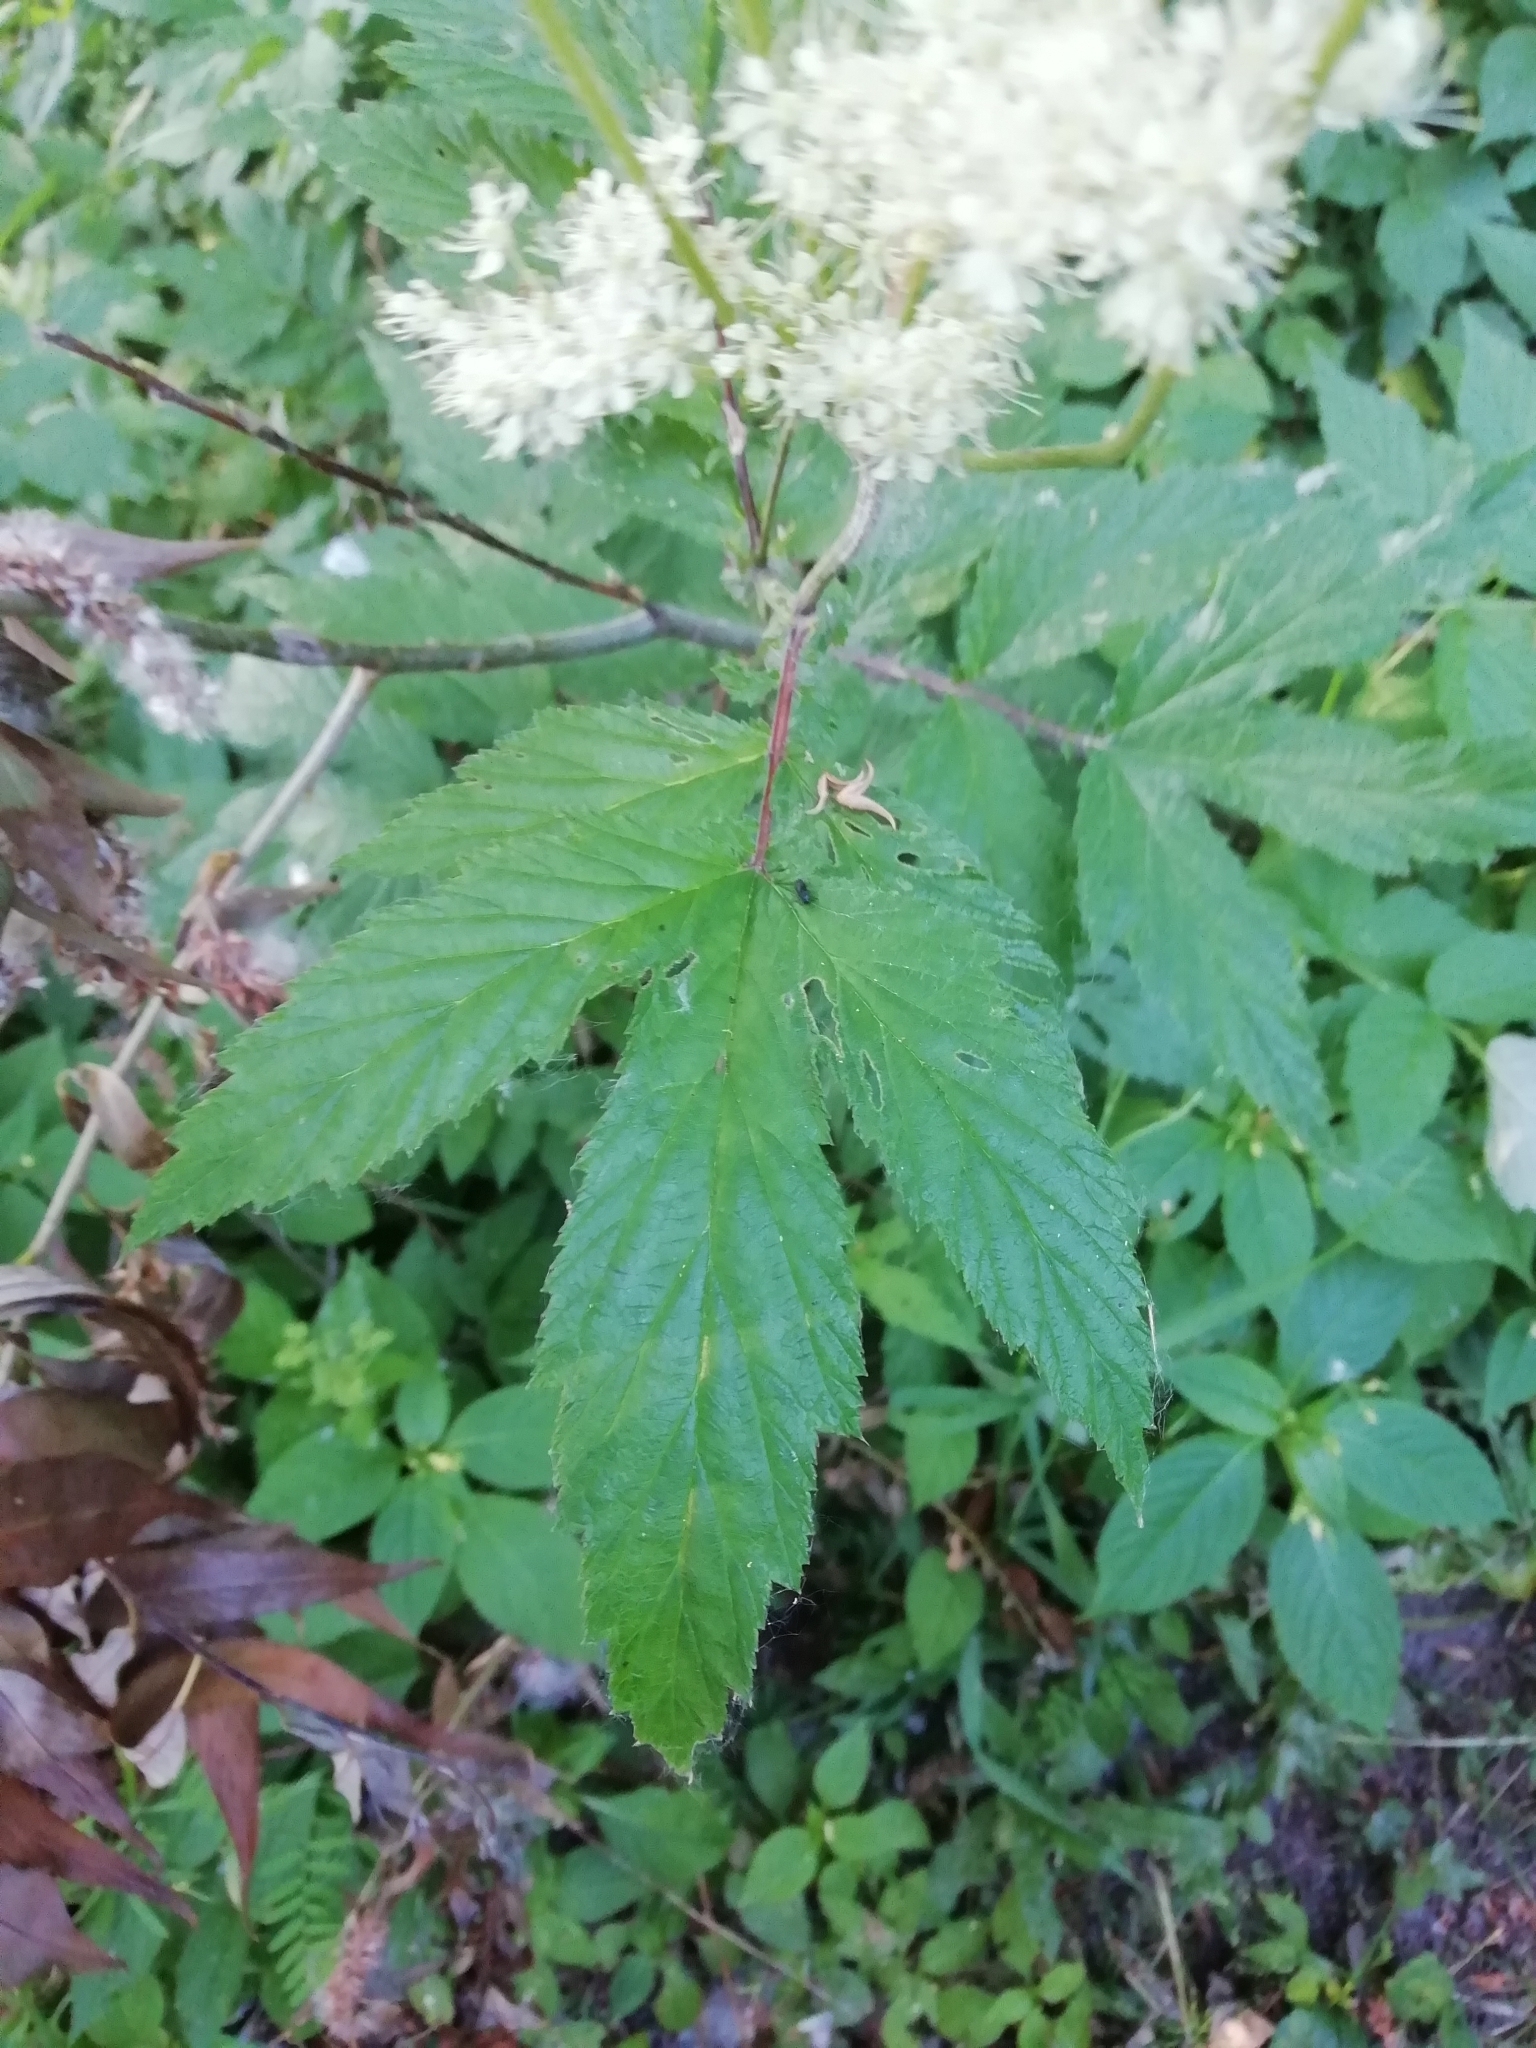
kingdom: Plantae
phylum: Tracheophyta
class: Magnoliopsida
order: Rosales
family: Rosaceae
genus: Filipendula
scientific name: Filipendula ulmaria
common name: Meadowsweet
